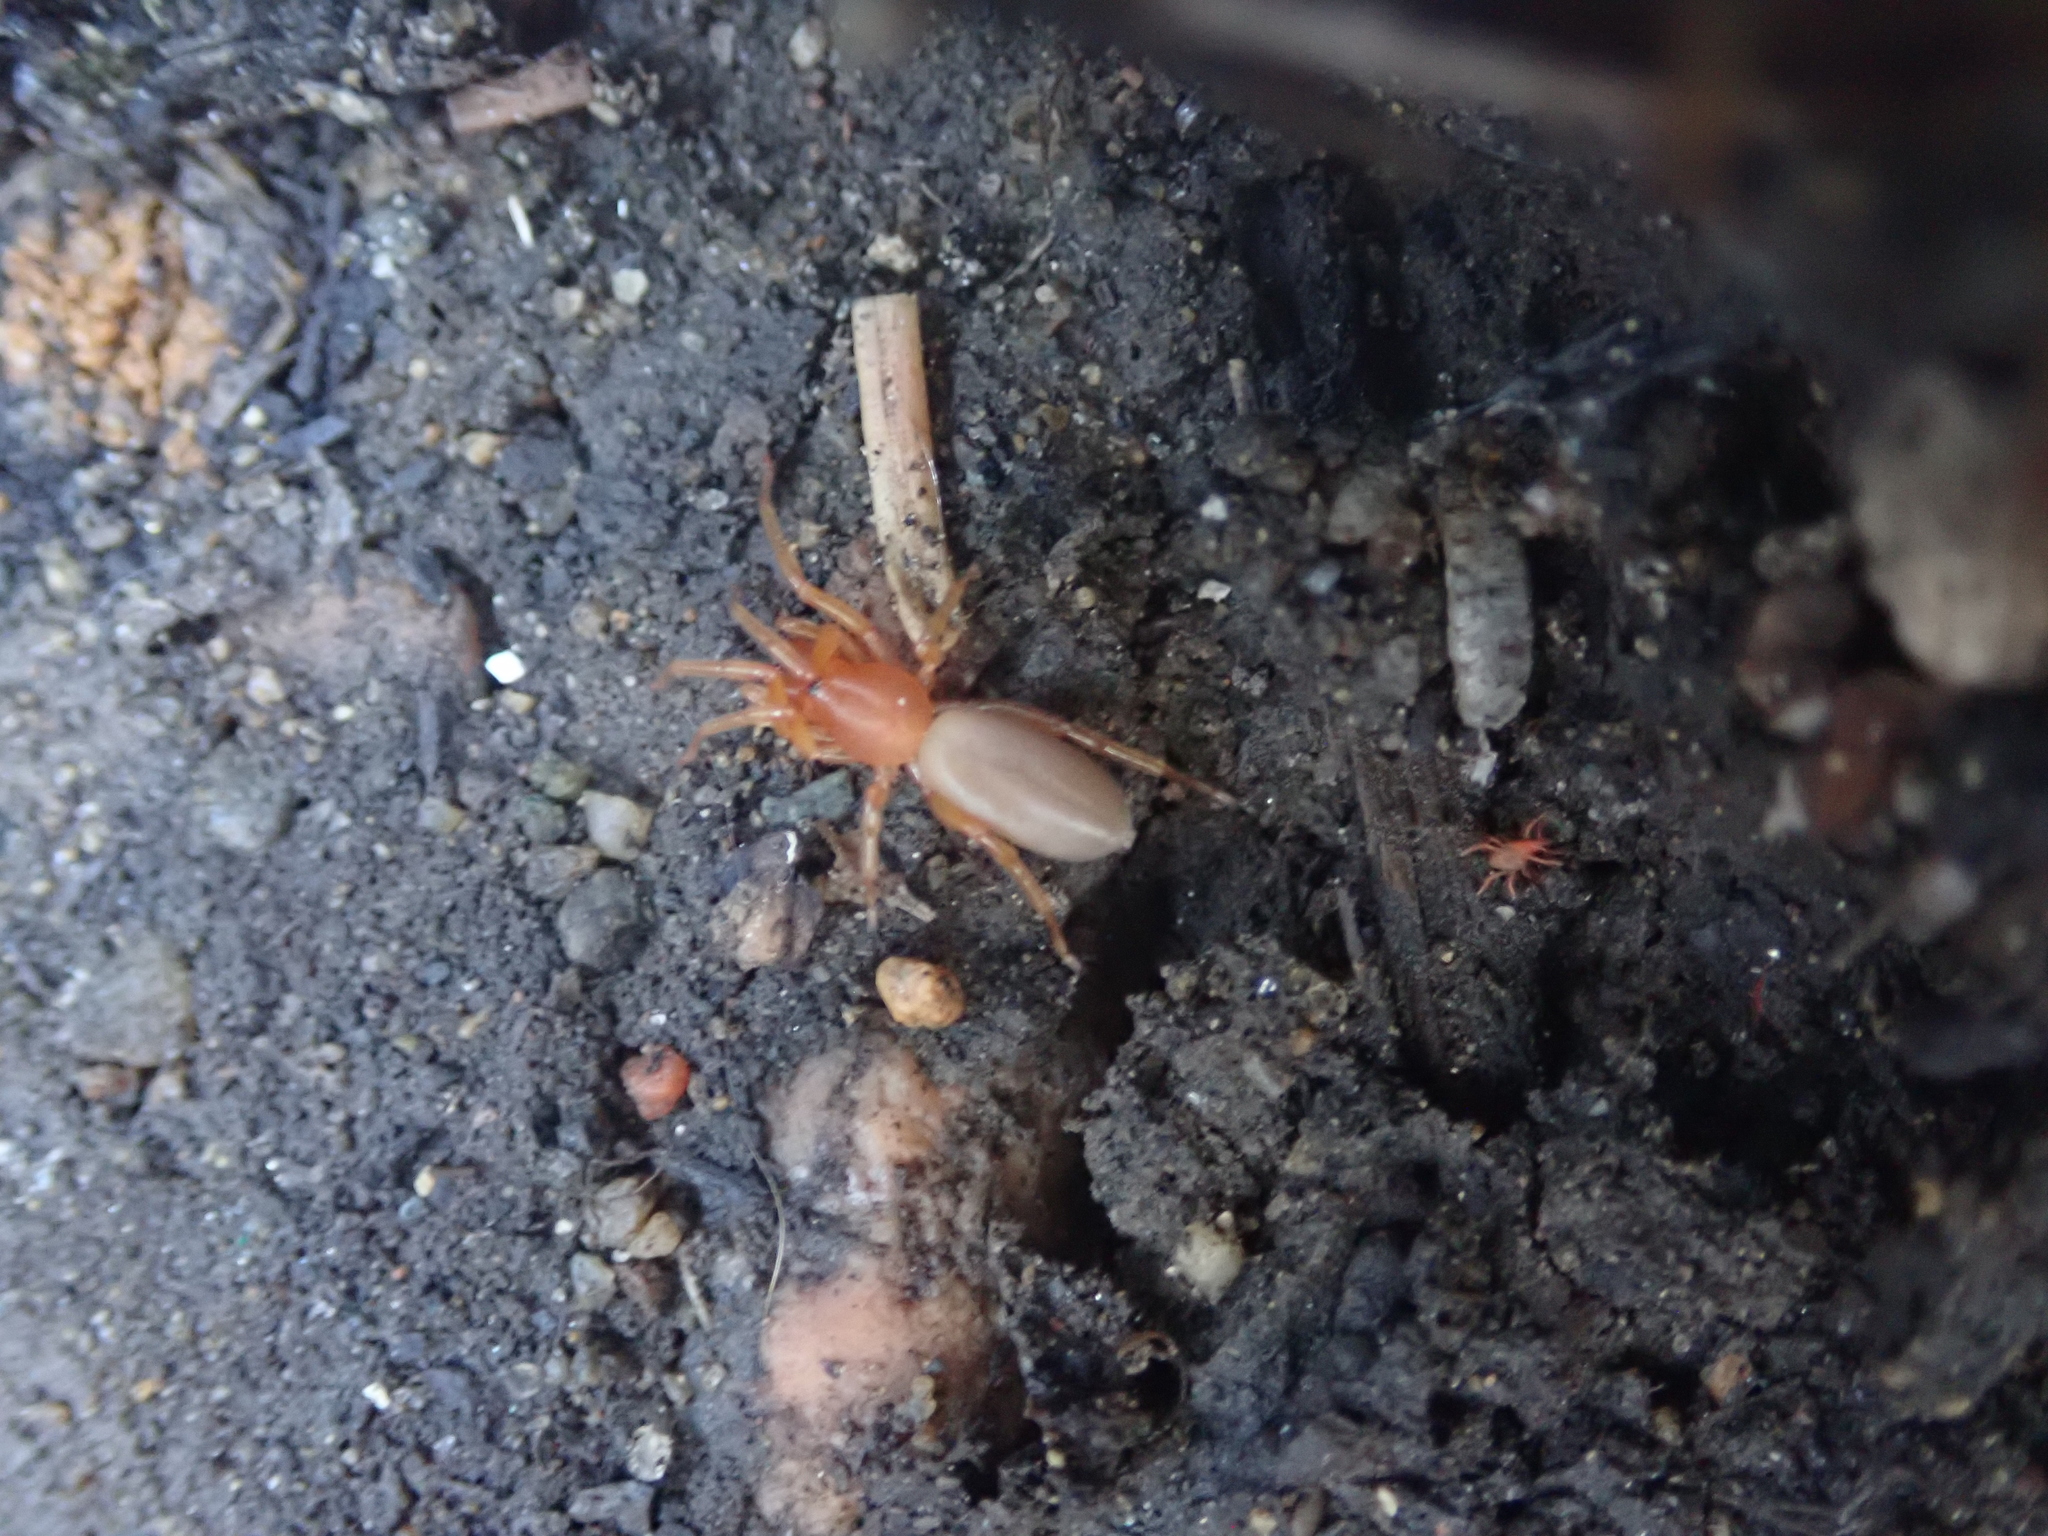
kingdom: Animalia
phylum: Arthropoda
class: Arachnida
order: Araneae
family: Dysderidae
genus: Dysdera
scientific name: Dysdera crocata
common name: Woodlouse spider
